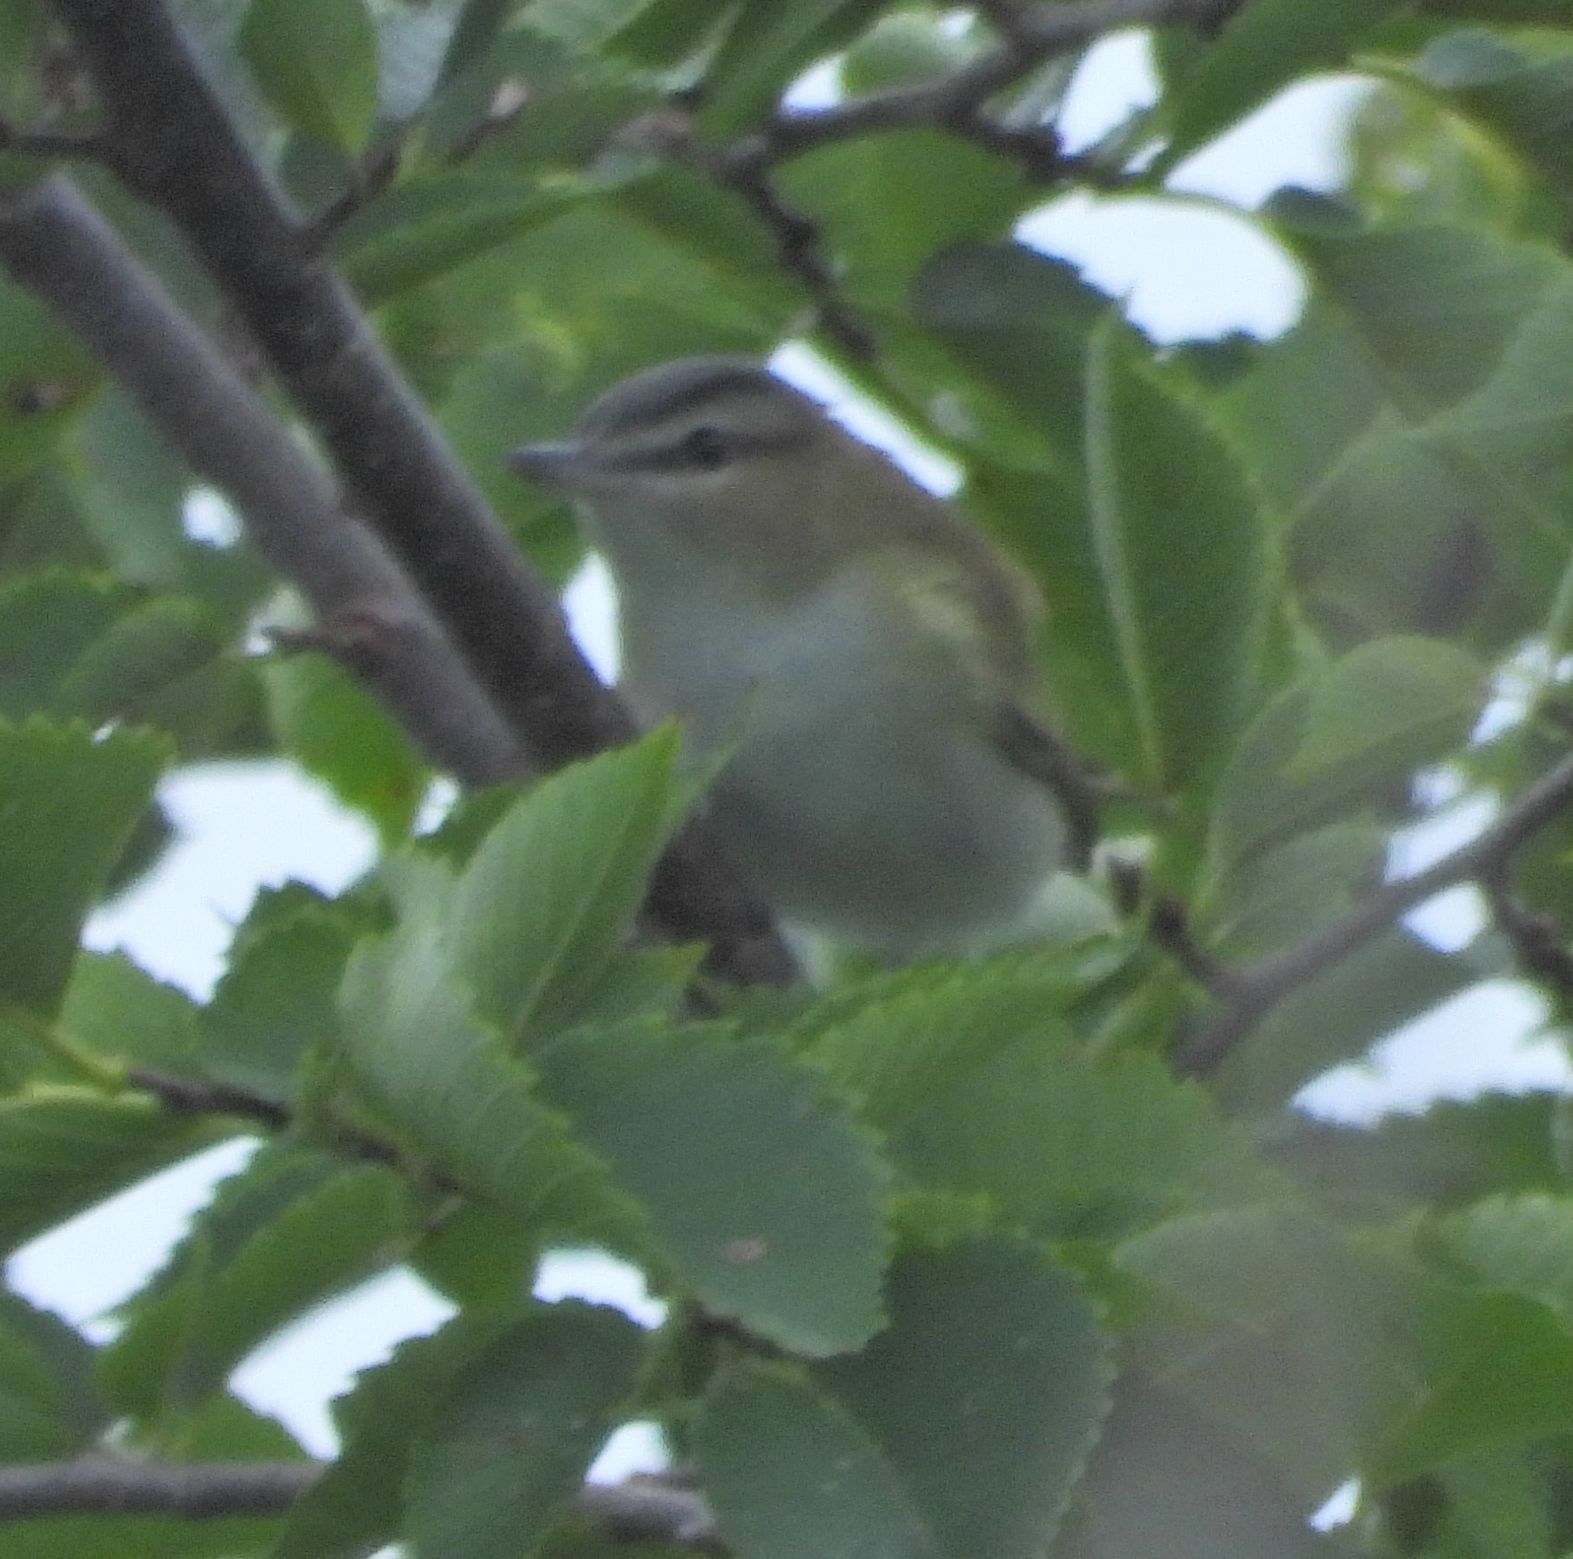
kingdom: Animalia
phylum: Chordata
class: Aves
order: Passeriformes
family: Vireonidae
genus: Vireo
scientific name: Vireo olivaceus
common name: Red-eyed vireo
